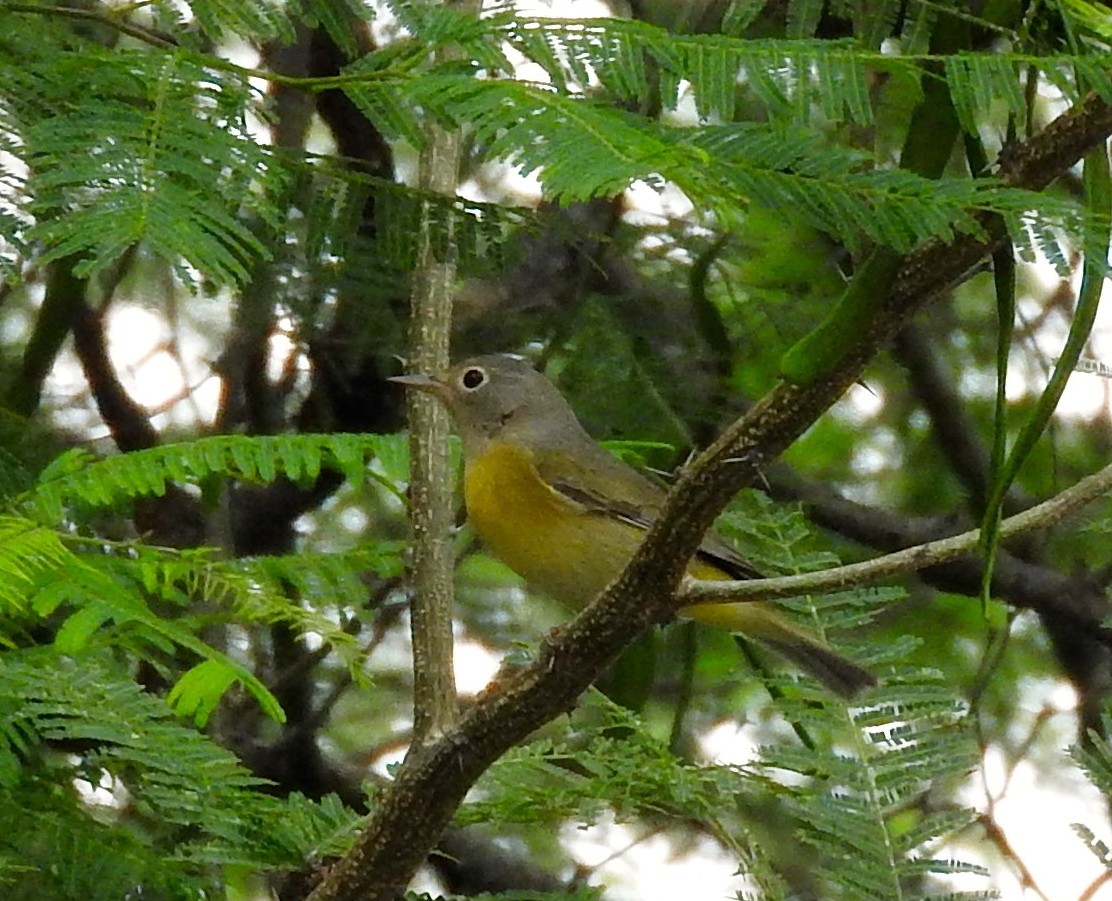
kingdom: Animalia
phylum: Chordata
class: Aves
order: Passeriformes
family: Parulidae
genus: Leiothlypis
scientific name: Leiothlypis ruficapilla
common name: Nashville warbler
